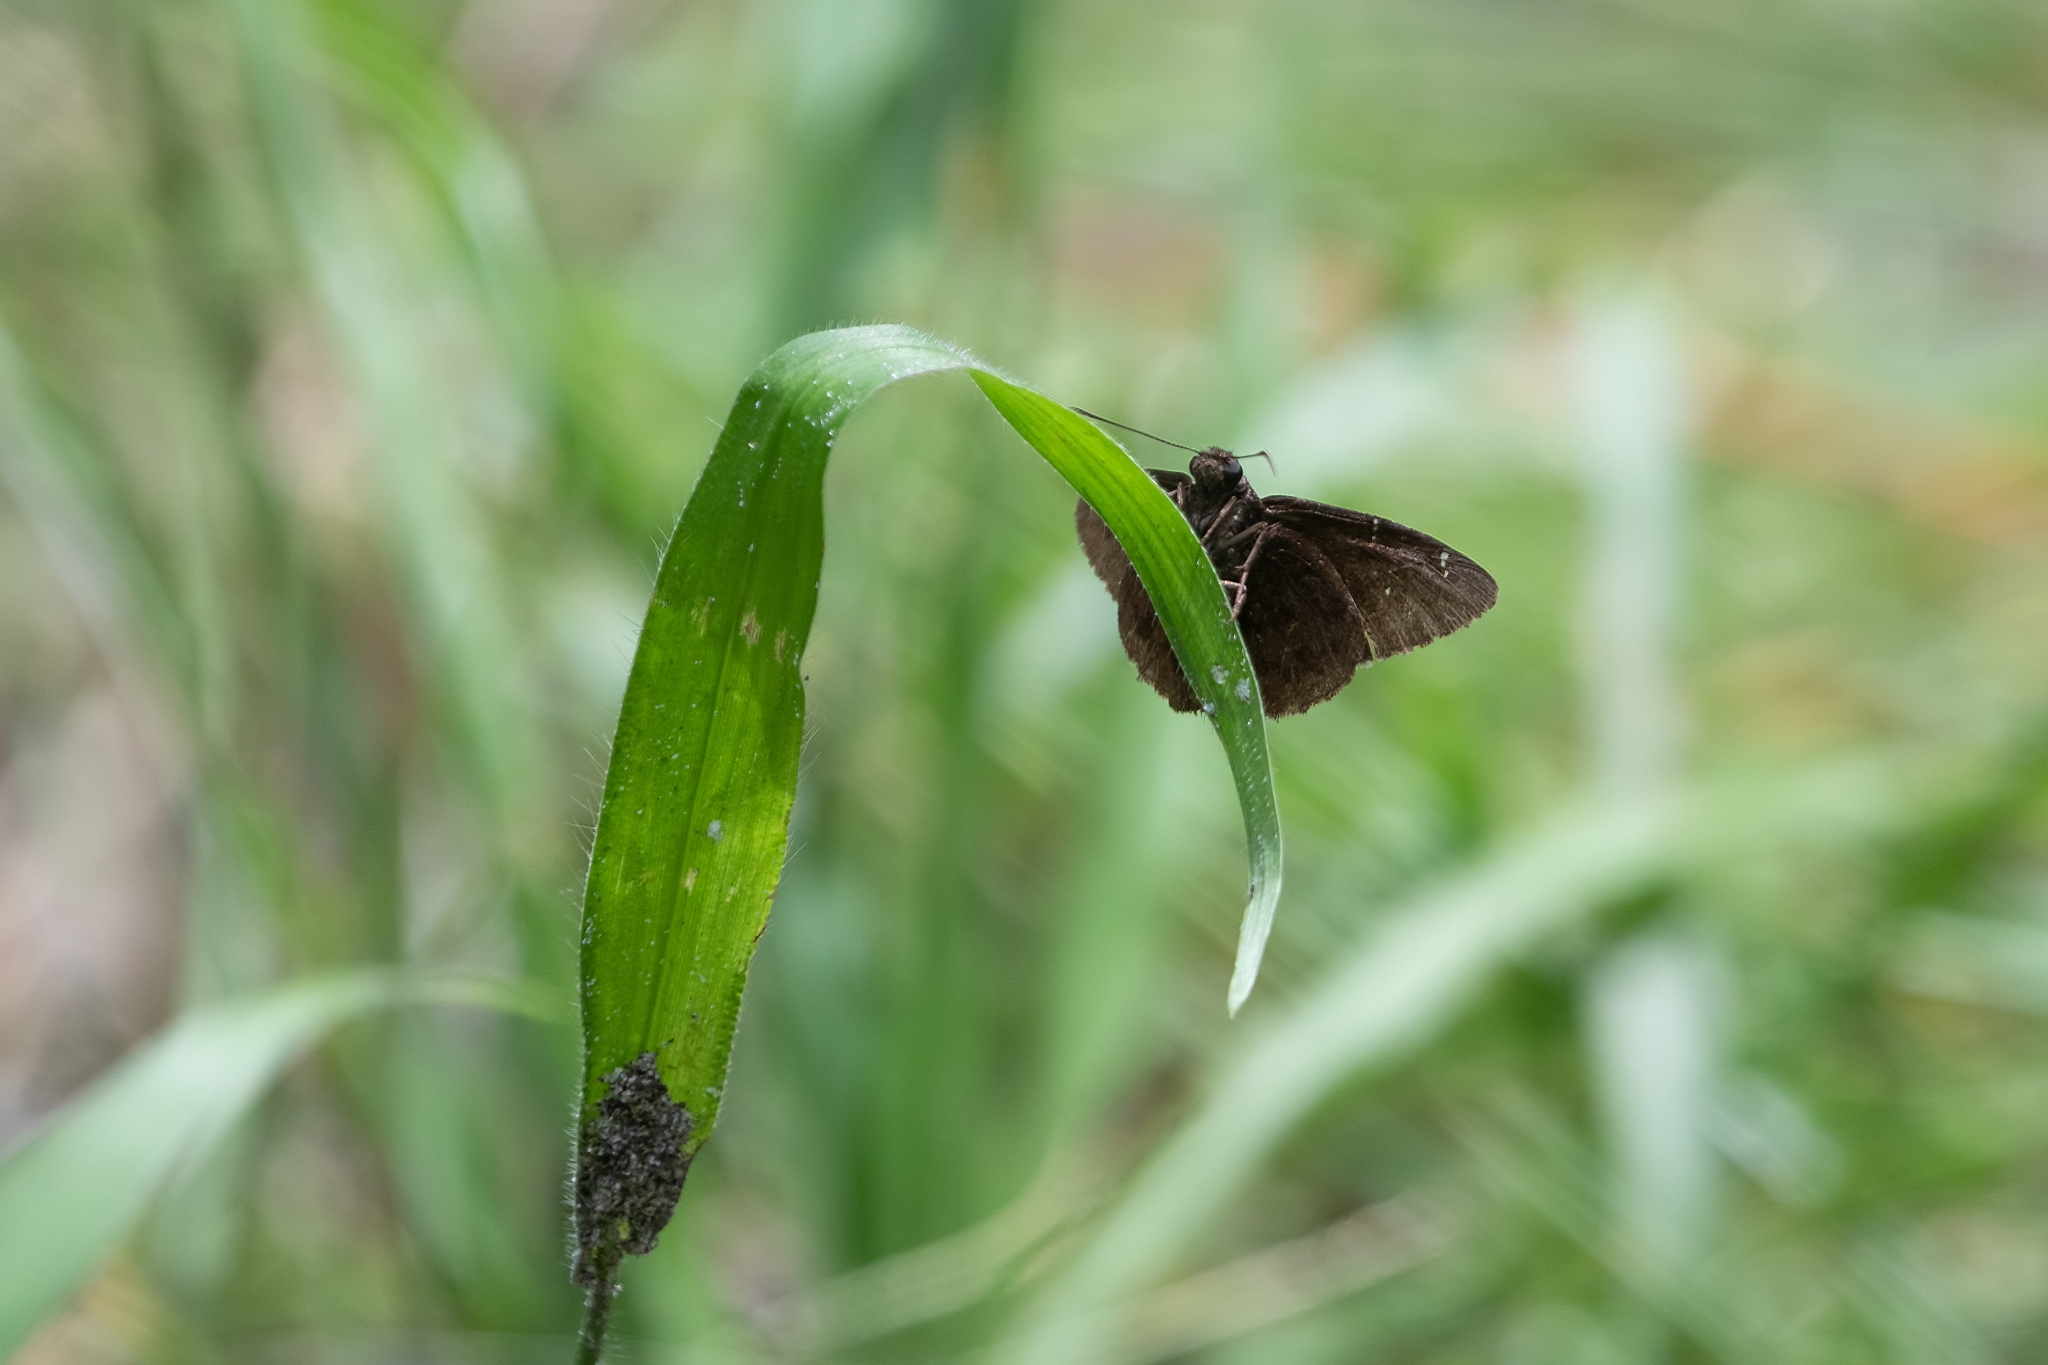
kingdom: Animalia
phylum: Arthropoda
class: Insecta
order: Lepidoptera
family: Hesperiidae
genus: Erynnis
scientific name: Erynnis zarucco
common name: Zarucco duskywing
